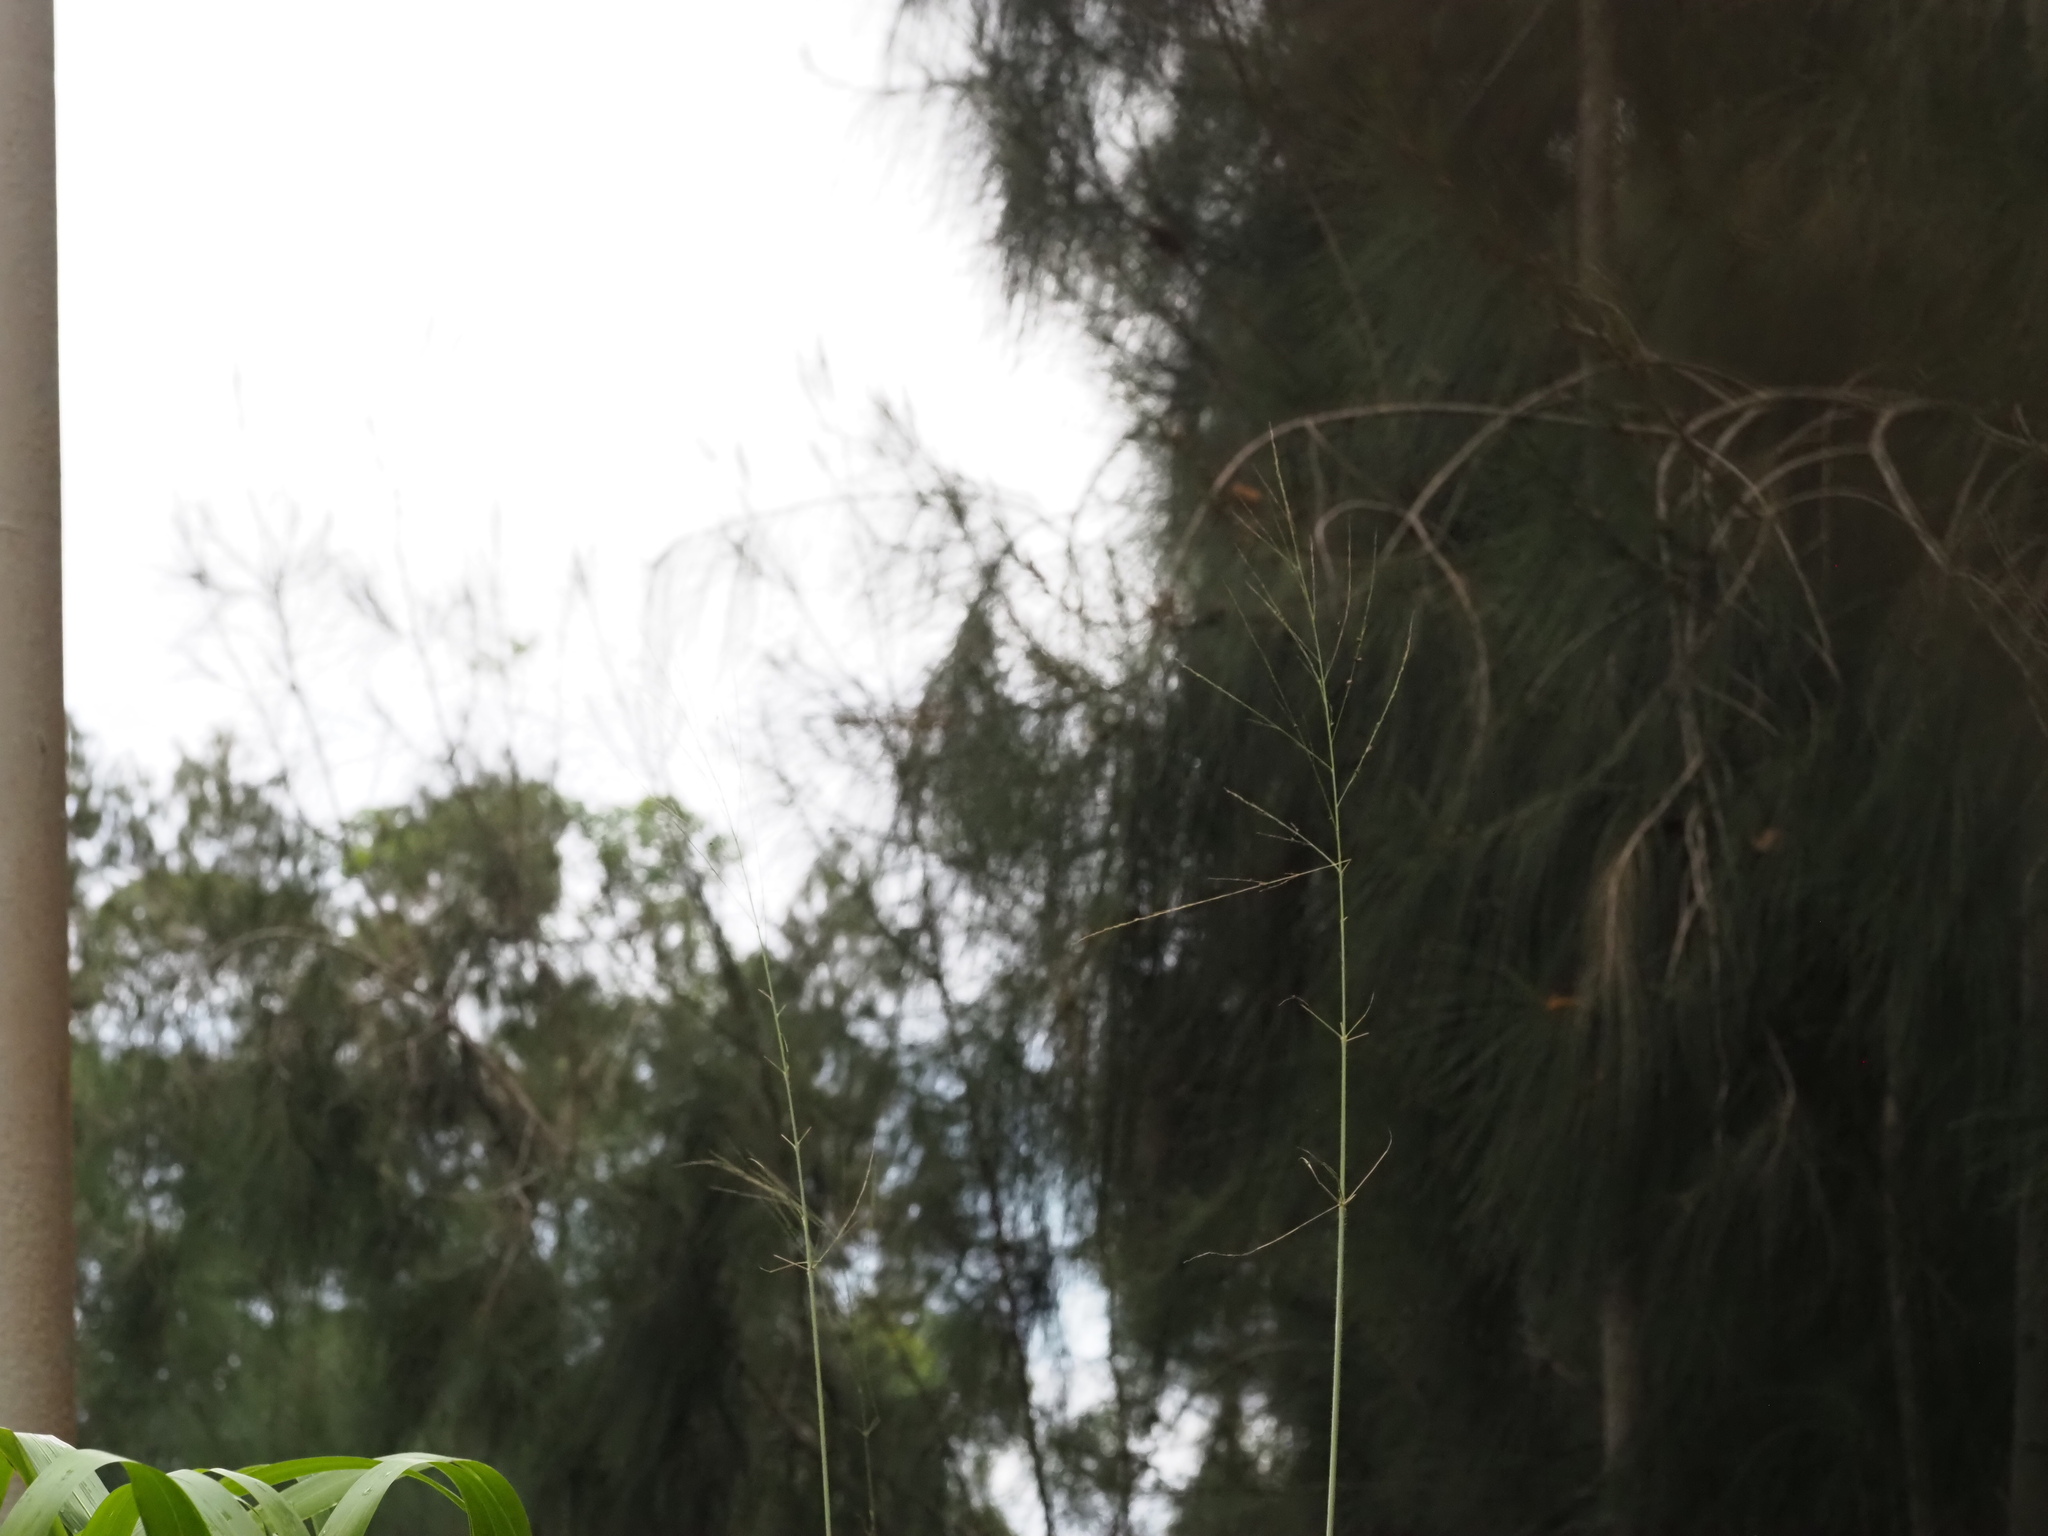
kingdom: Plantae
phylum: Tracheophyta
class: Liliopsida
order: Poales
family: Poaceae
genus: Megathyrsus
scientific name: Megathyrsus maximus
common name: Guineagrass
